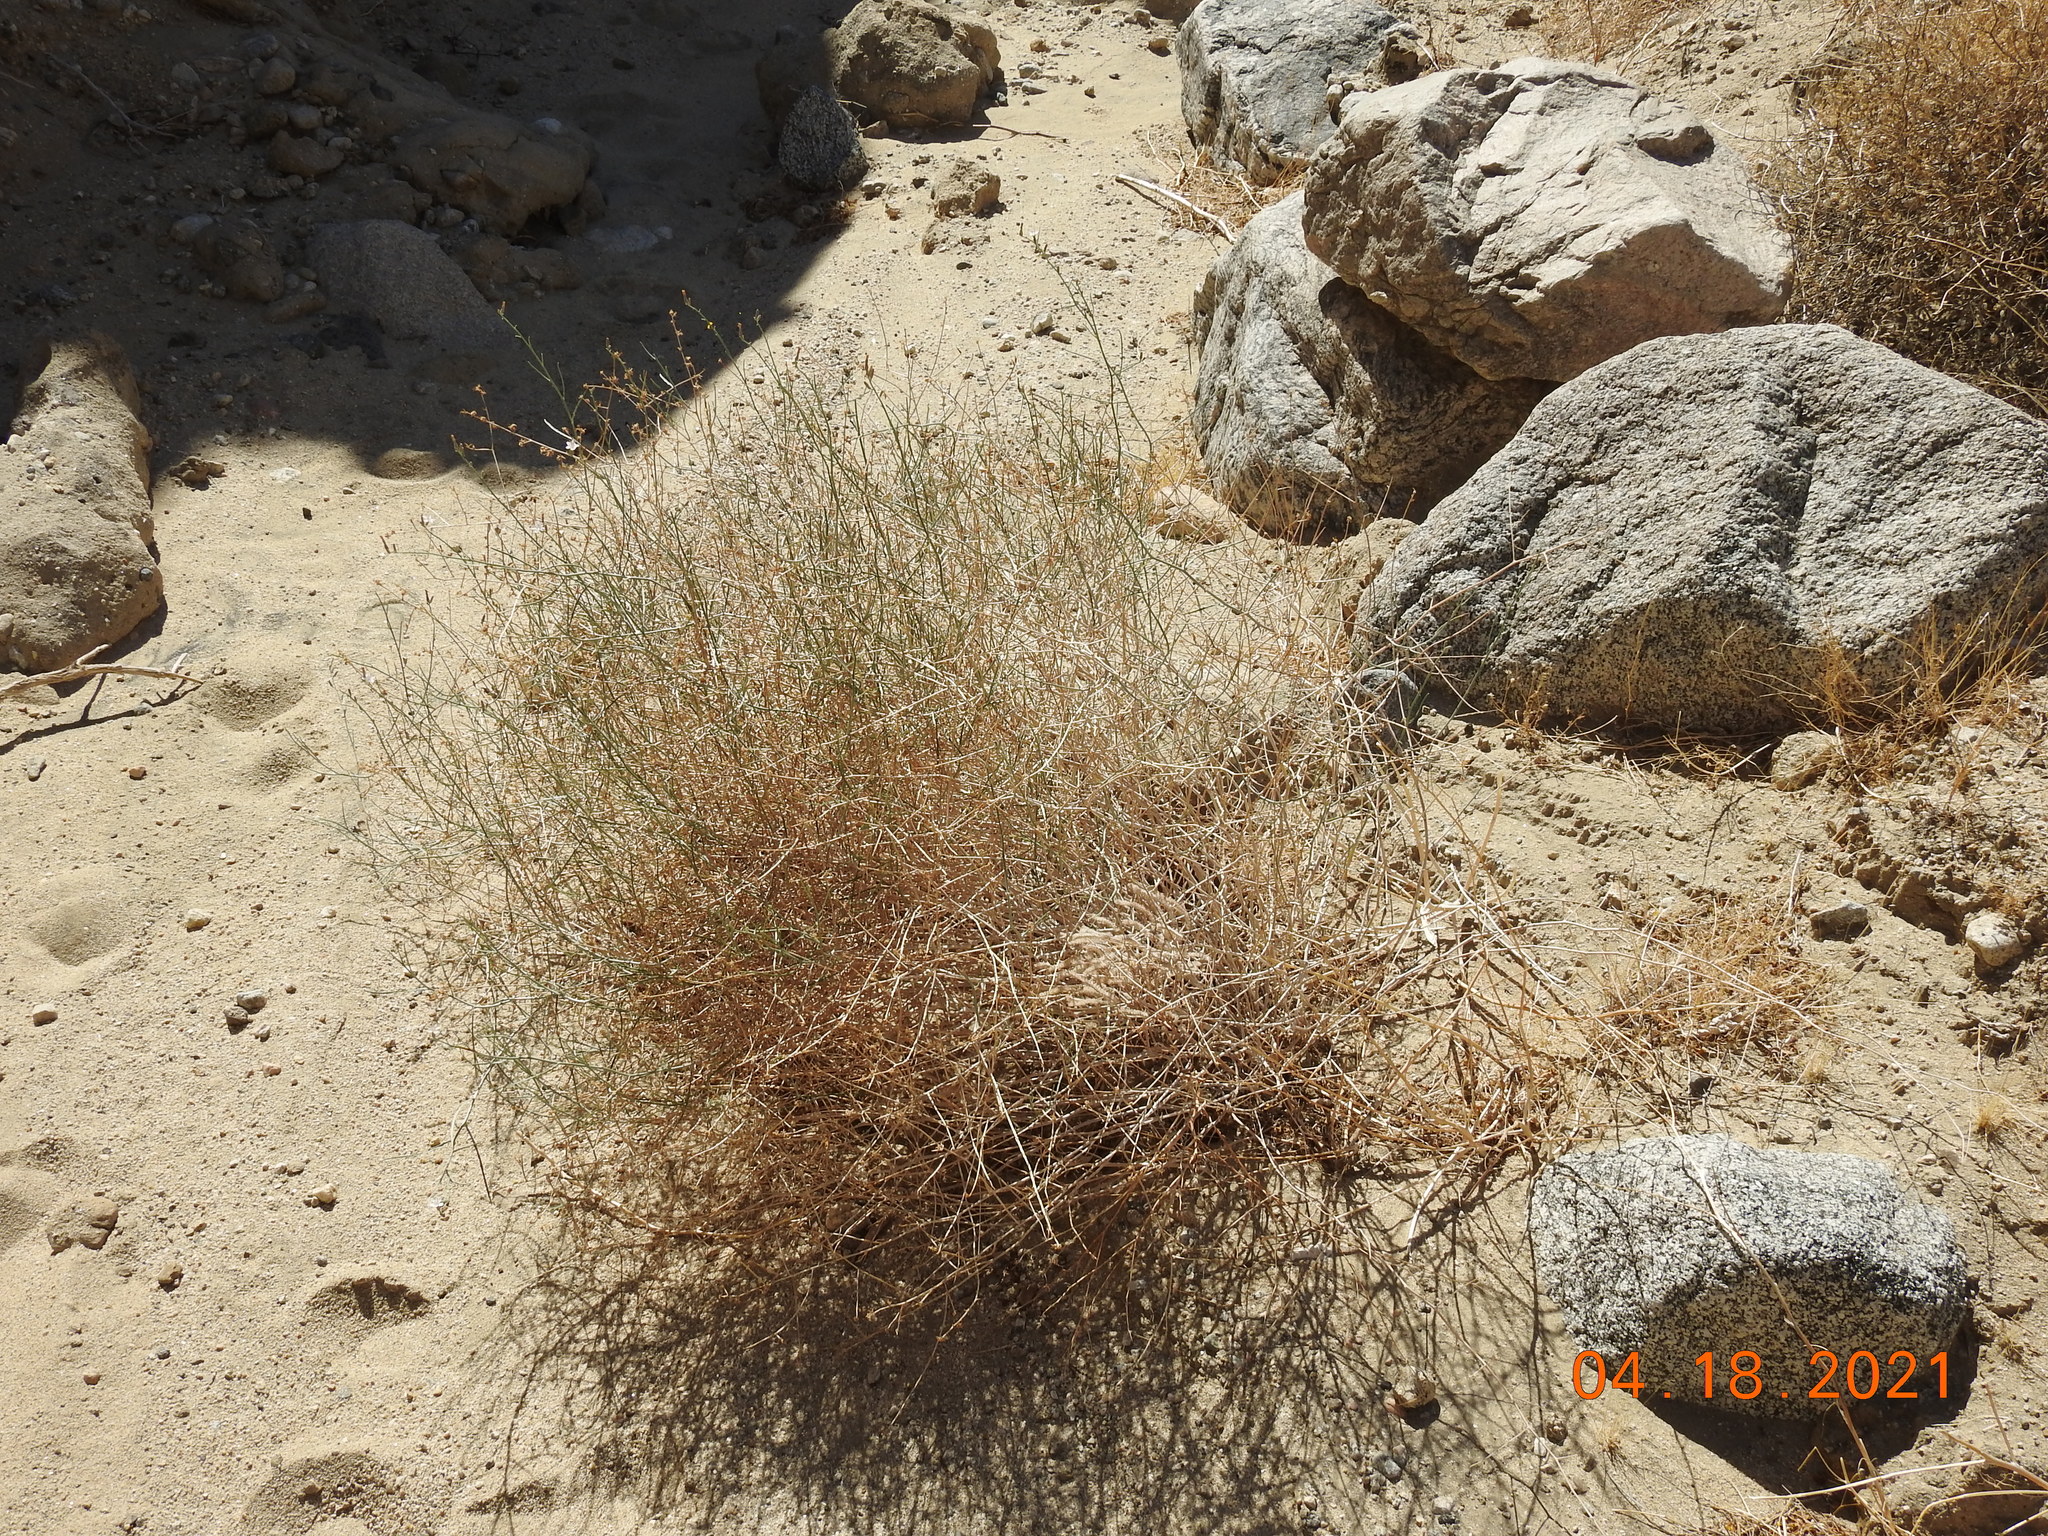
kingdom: Plantae
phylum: Tracheophyta
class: Magnoliopsida
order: Asterales
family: Asteraceae
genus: Stephanomeria
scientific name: Stephanomeria pauciflora
